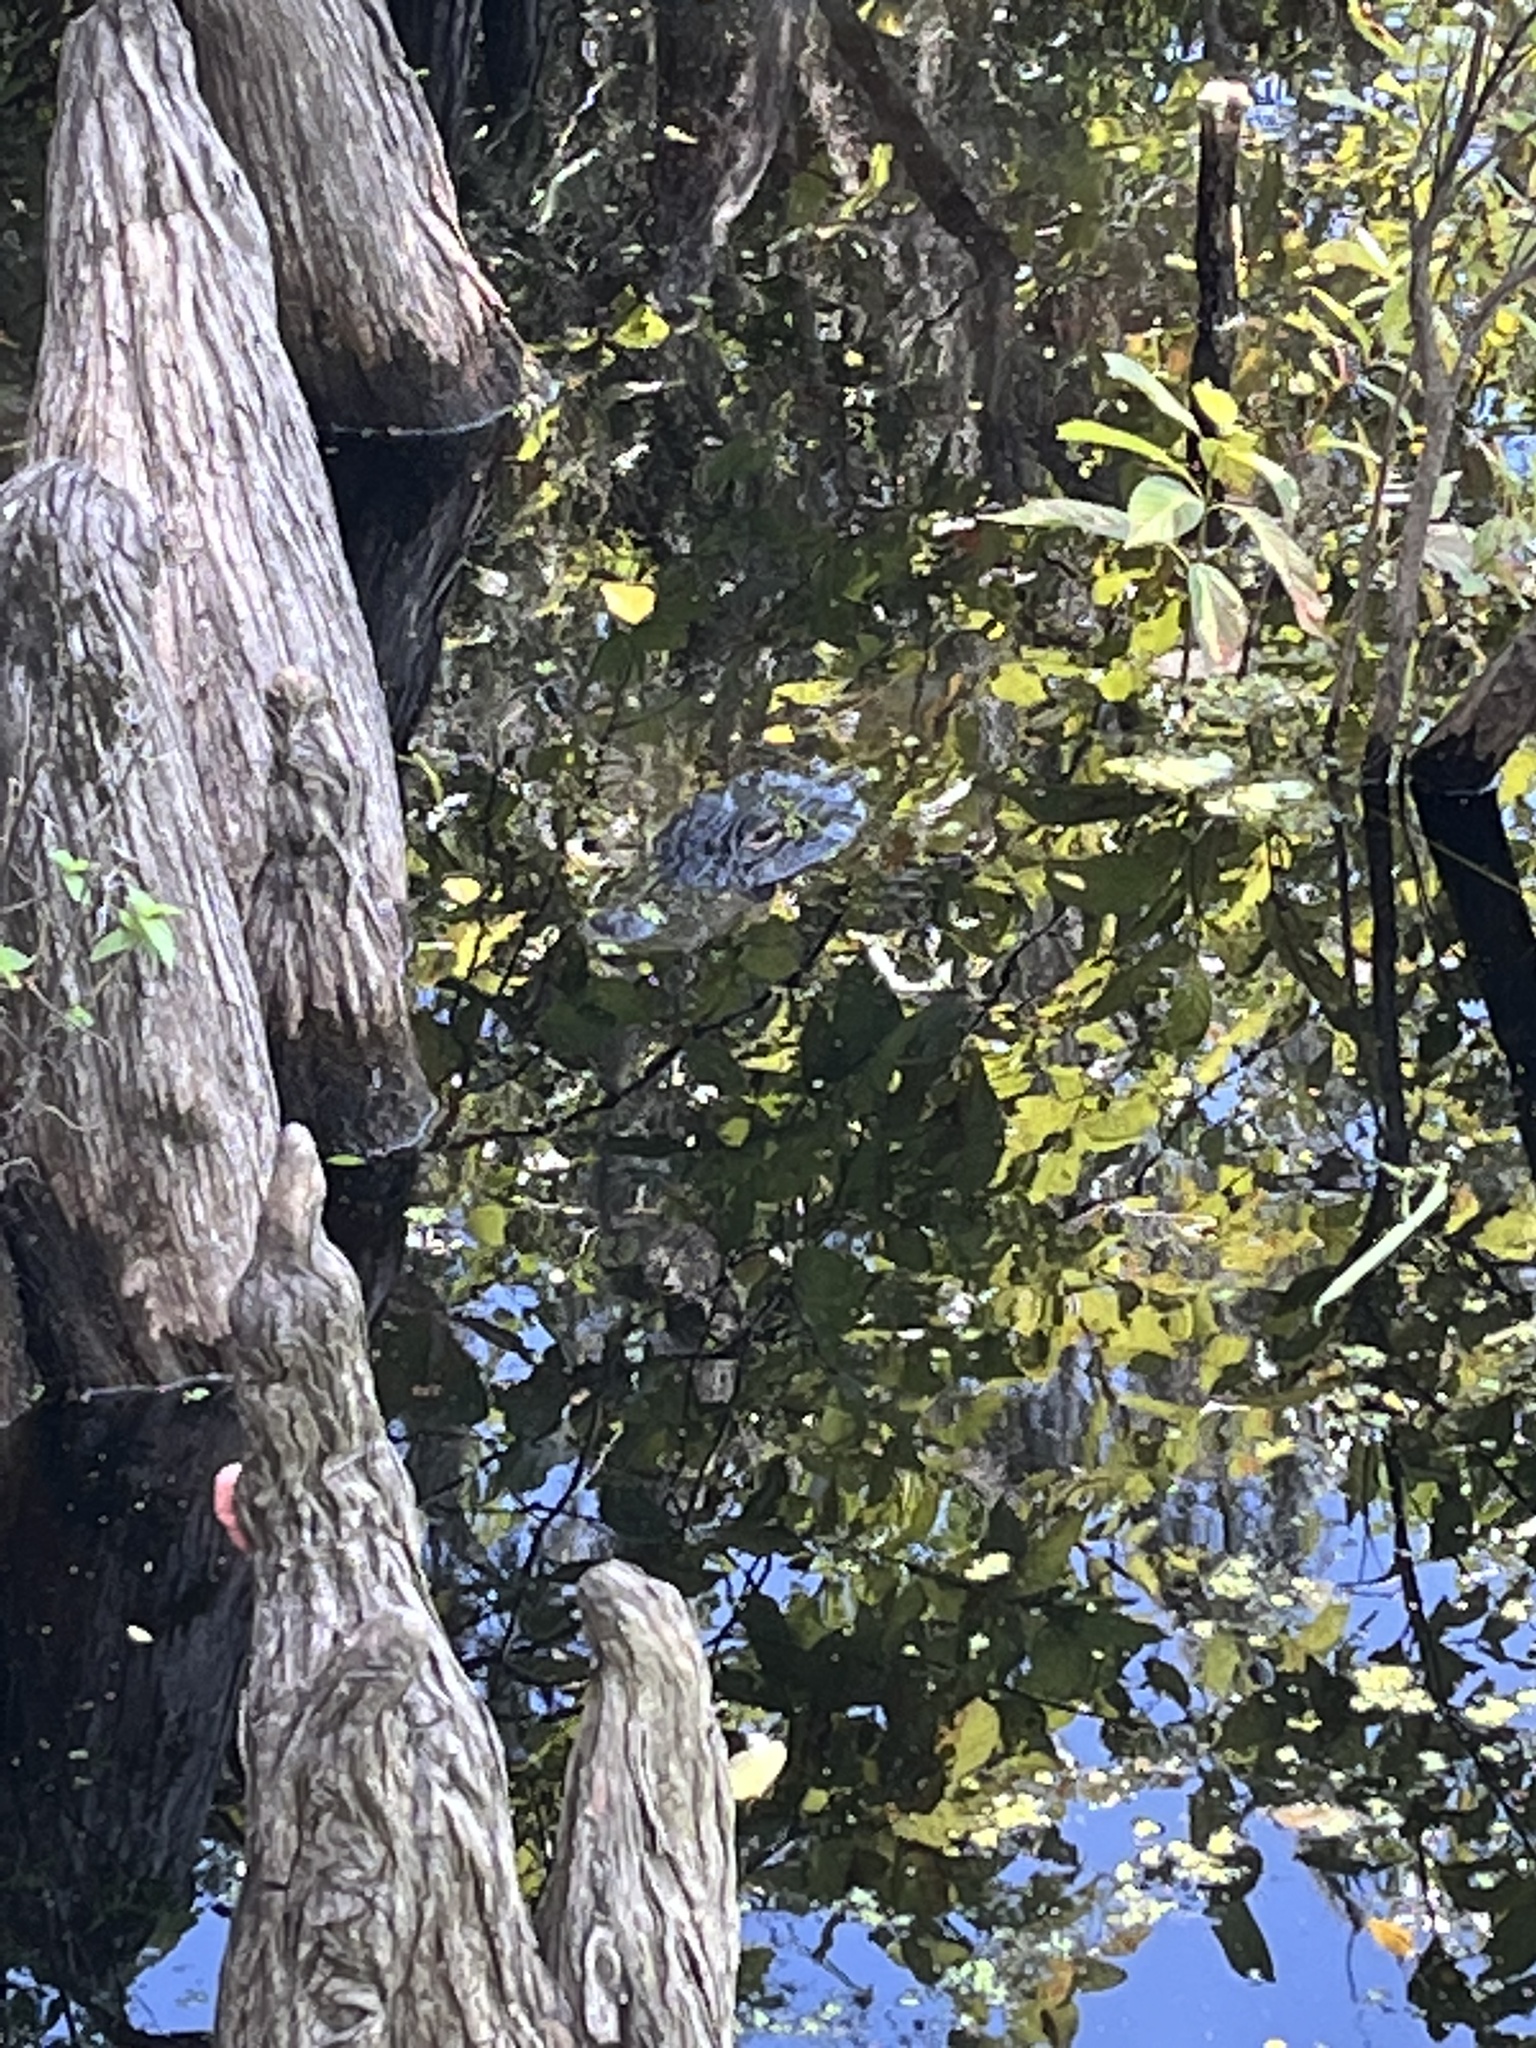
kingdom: Animalia
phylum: Chordata
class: Crocodylia
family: Alligatoridae
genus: Alligator
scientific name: Alligator mississippiensis
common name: American alligator
